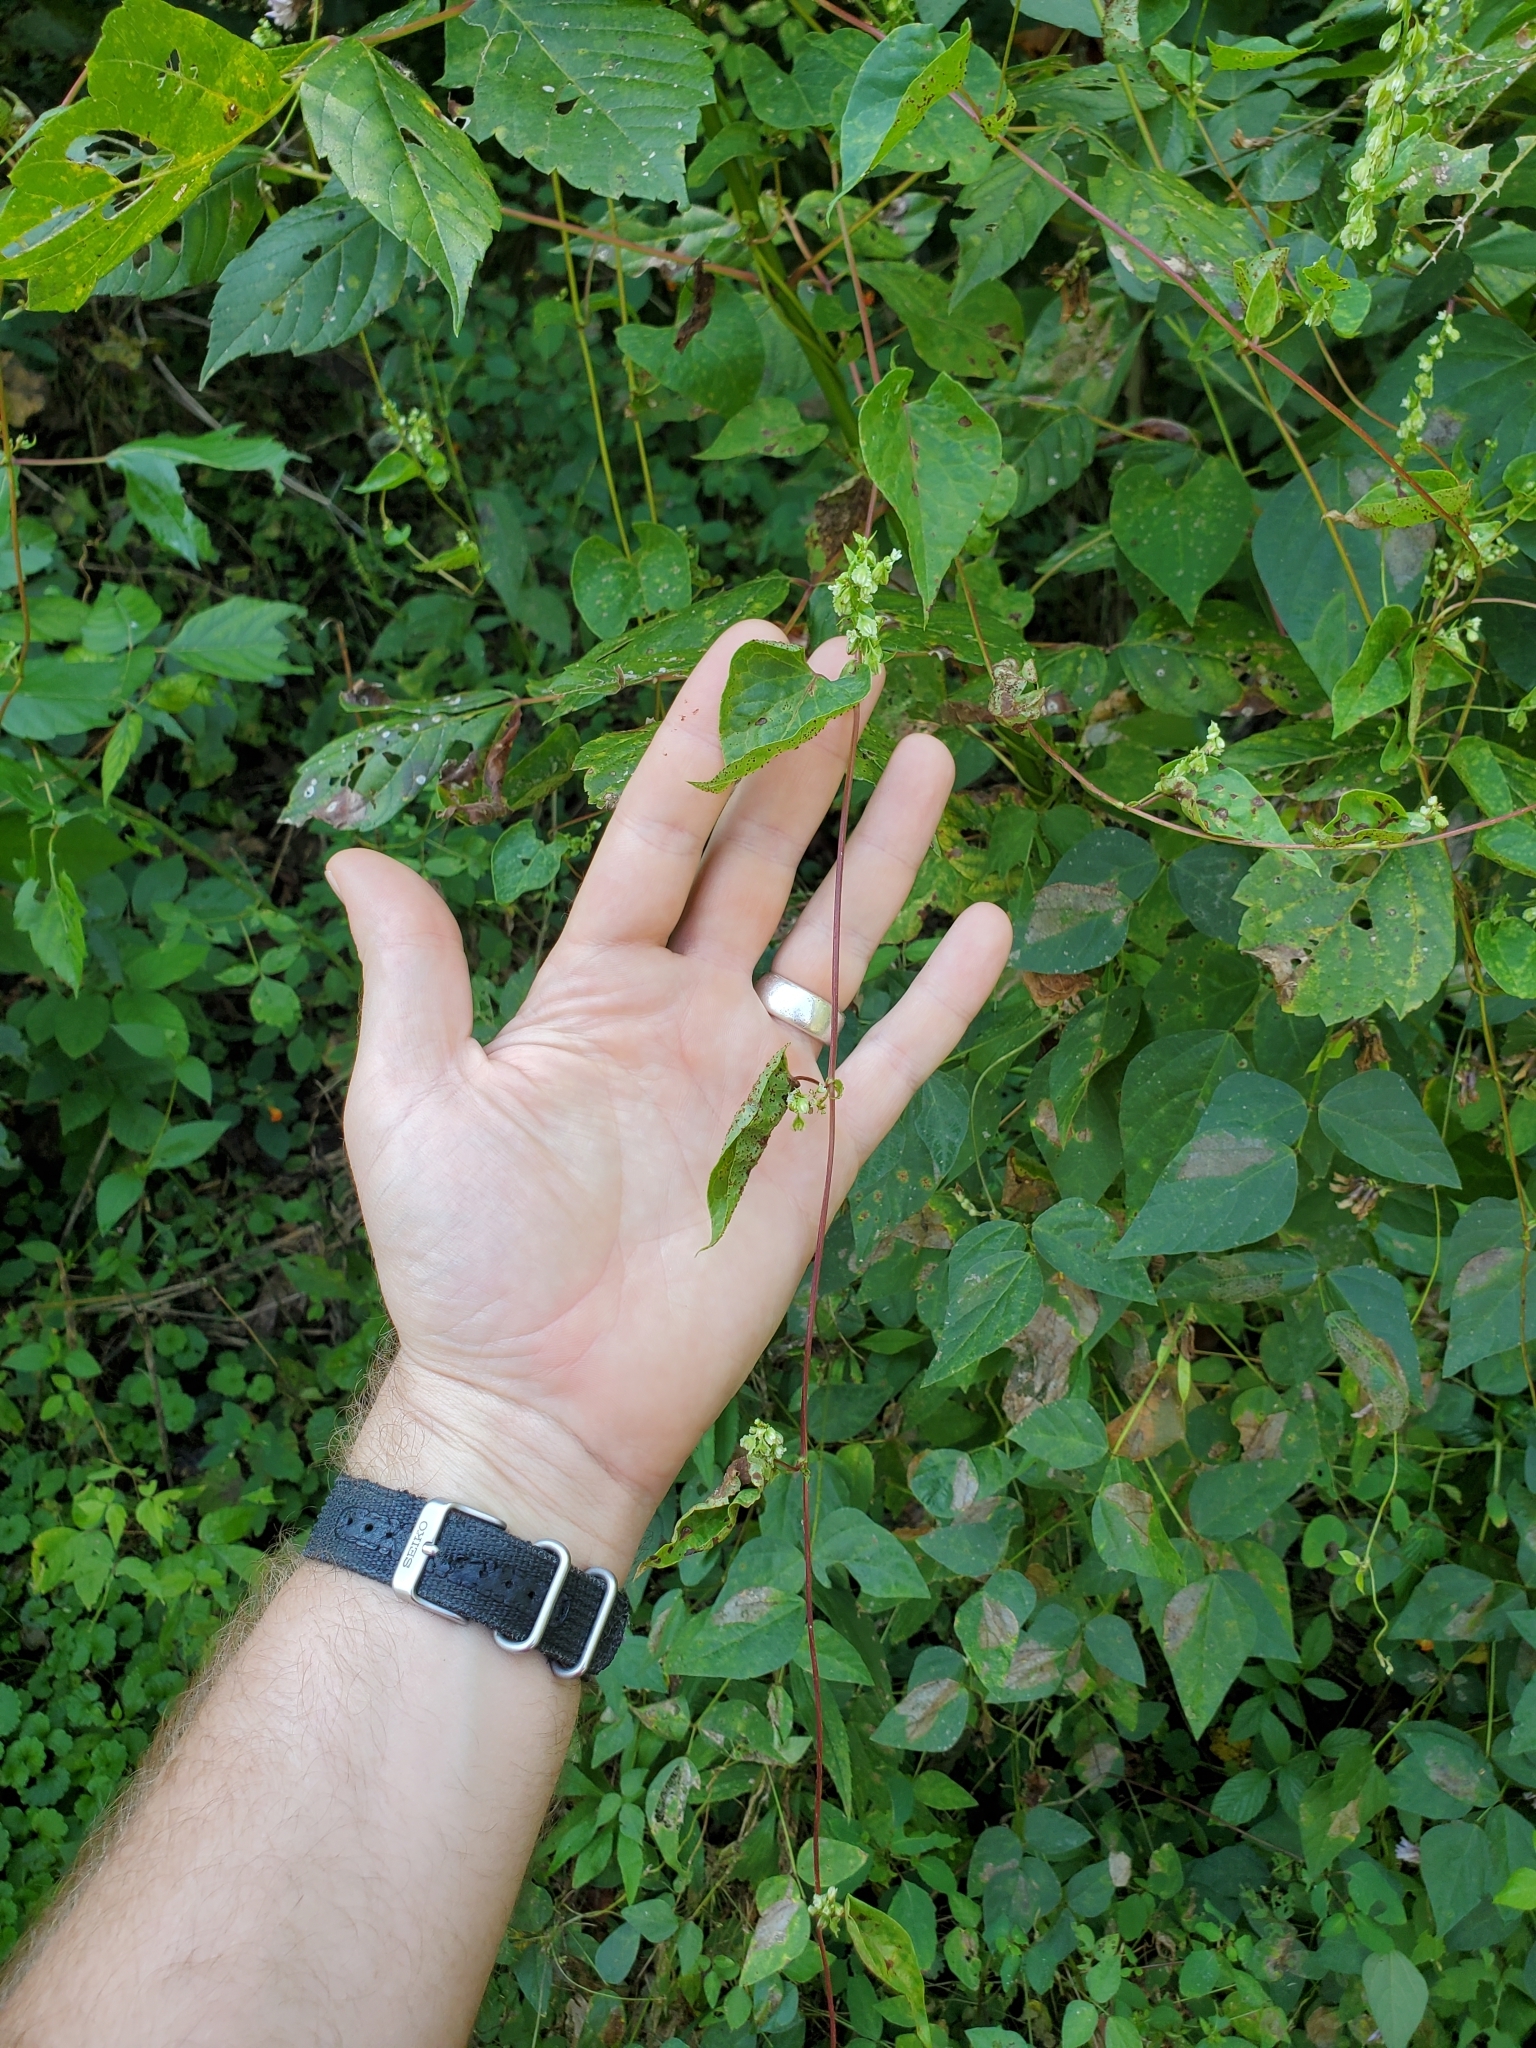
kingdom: Plantae
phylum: Tracheophyta
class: Magnoliopsida
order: Caryophyllales
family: Polygonaceae
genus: Fallopia
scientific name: Fallopia scandens
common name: Climbing false buckwheat
